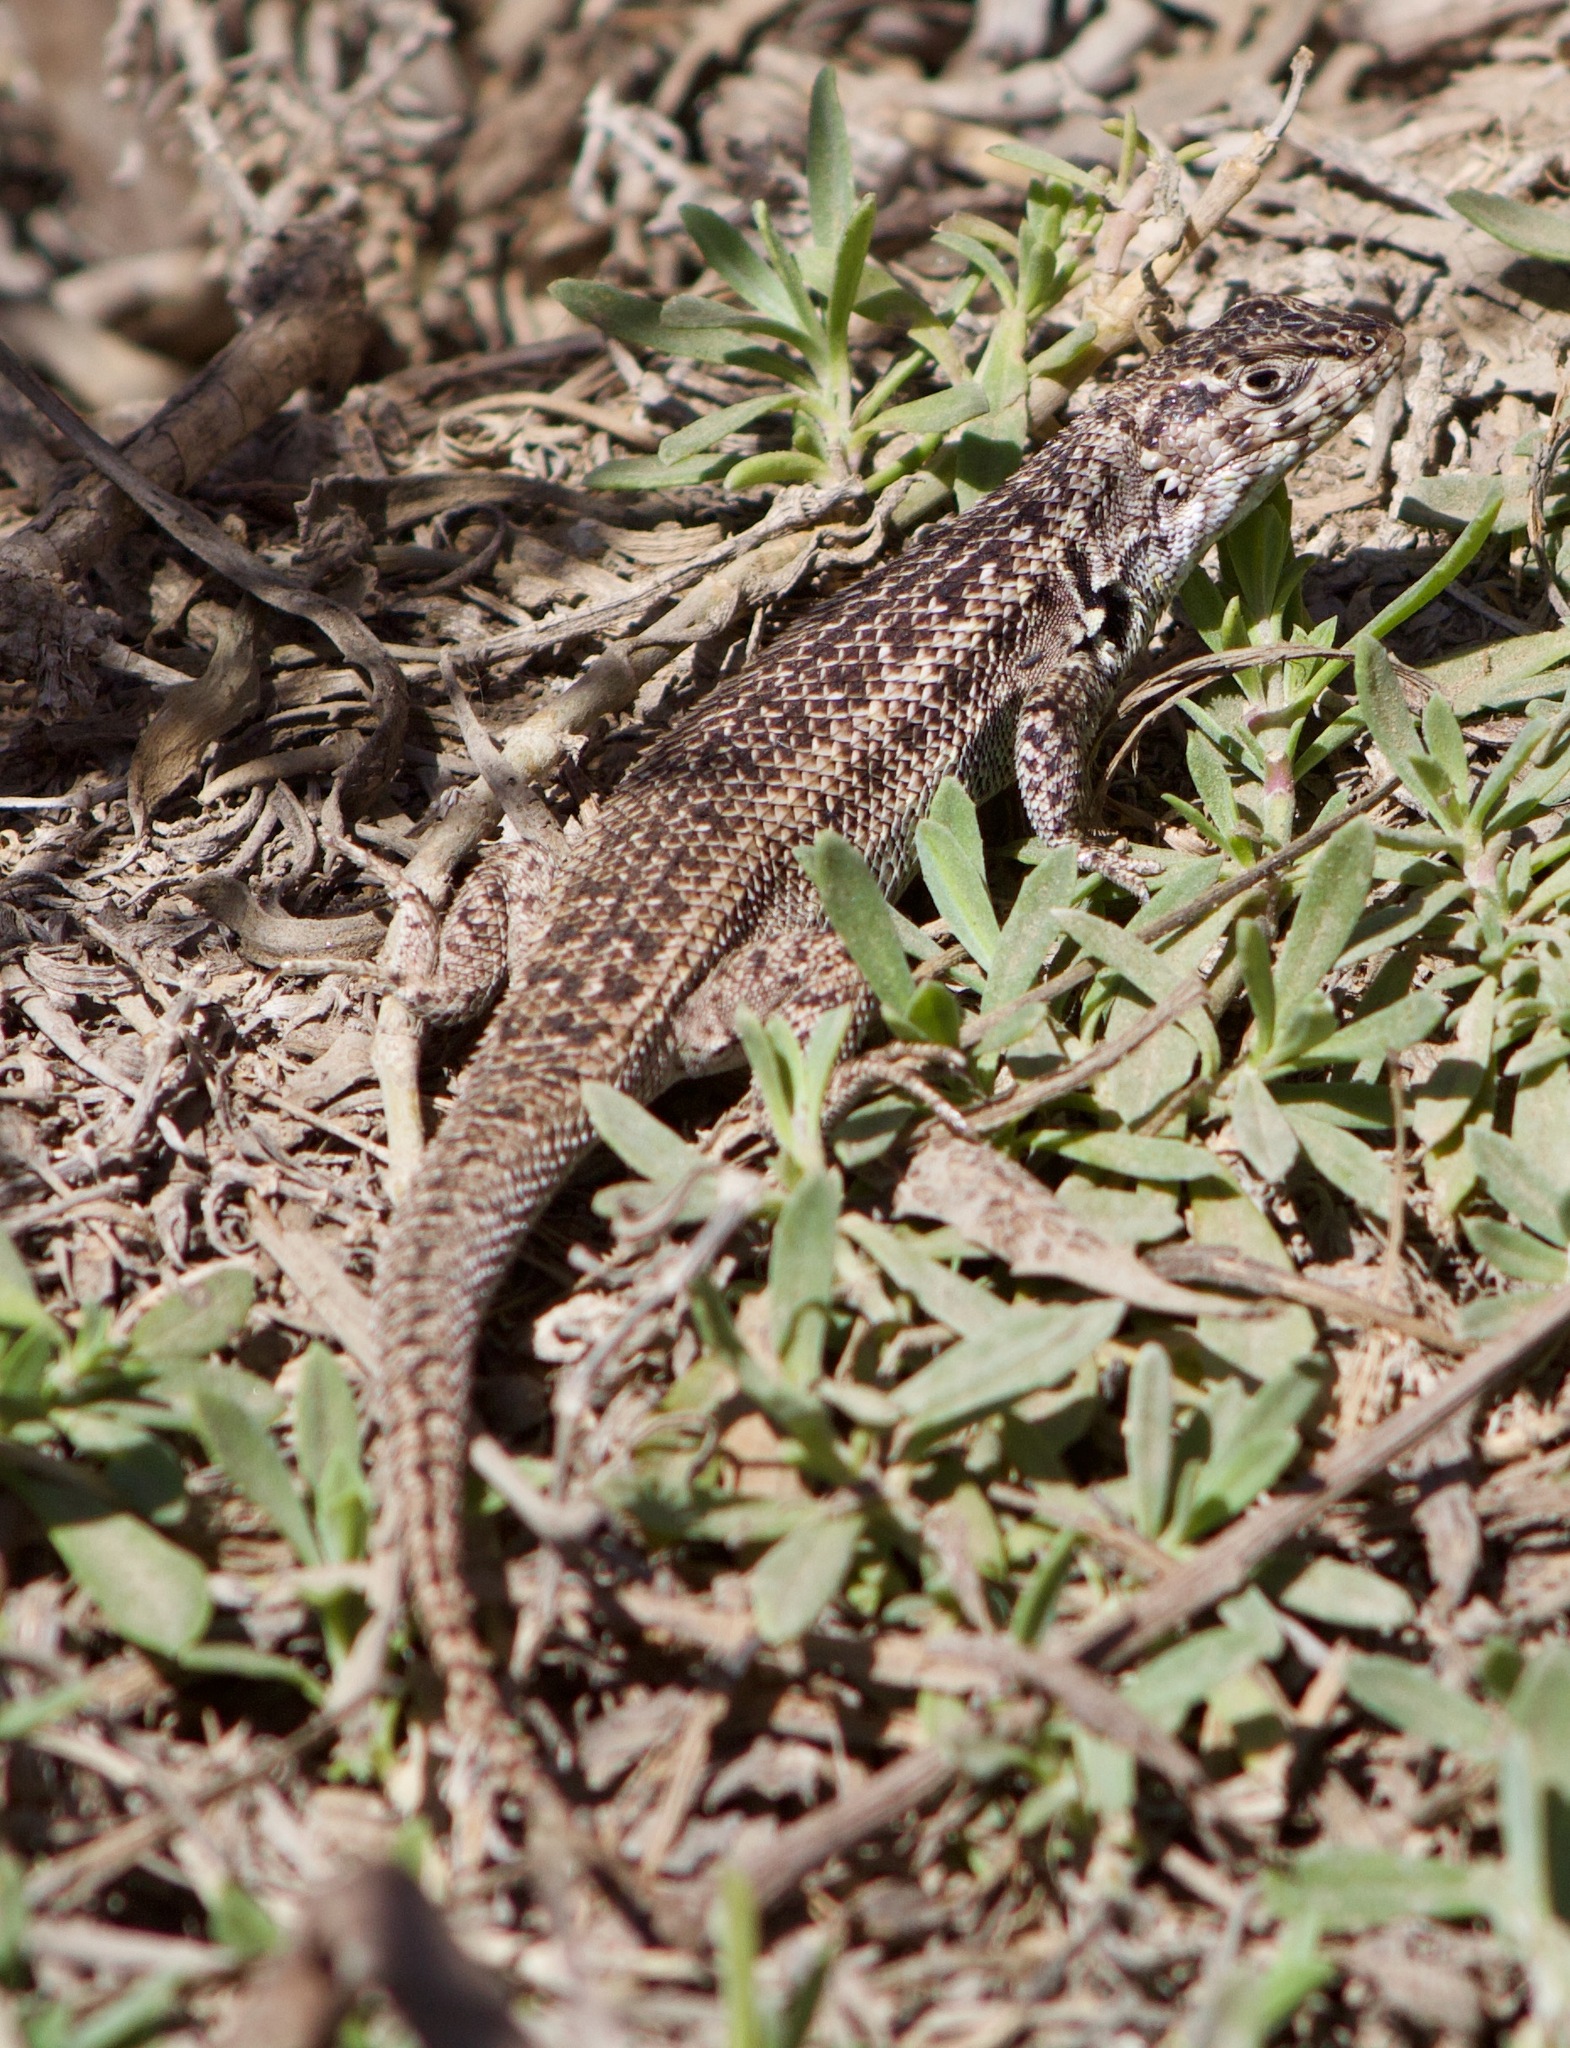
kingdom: Animalia
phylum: Chordata
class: Squamata
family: Liolaemidae
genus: Liolaemus
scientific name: Liolaemus zapallarensis
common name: Zapallaren tree iguana
